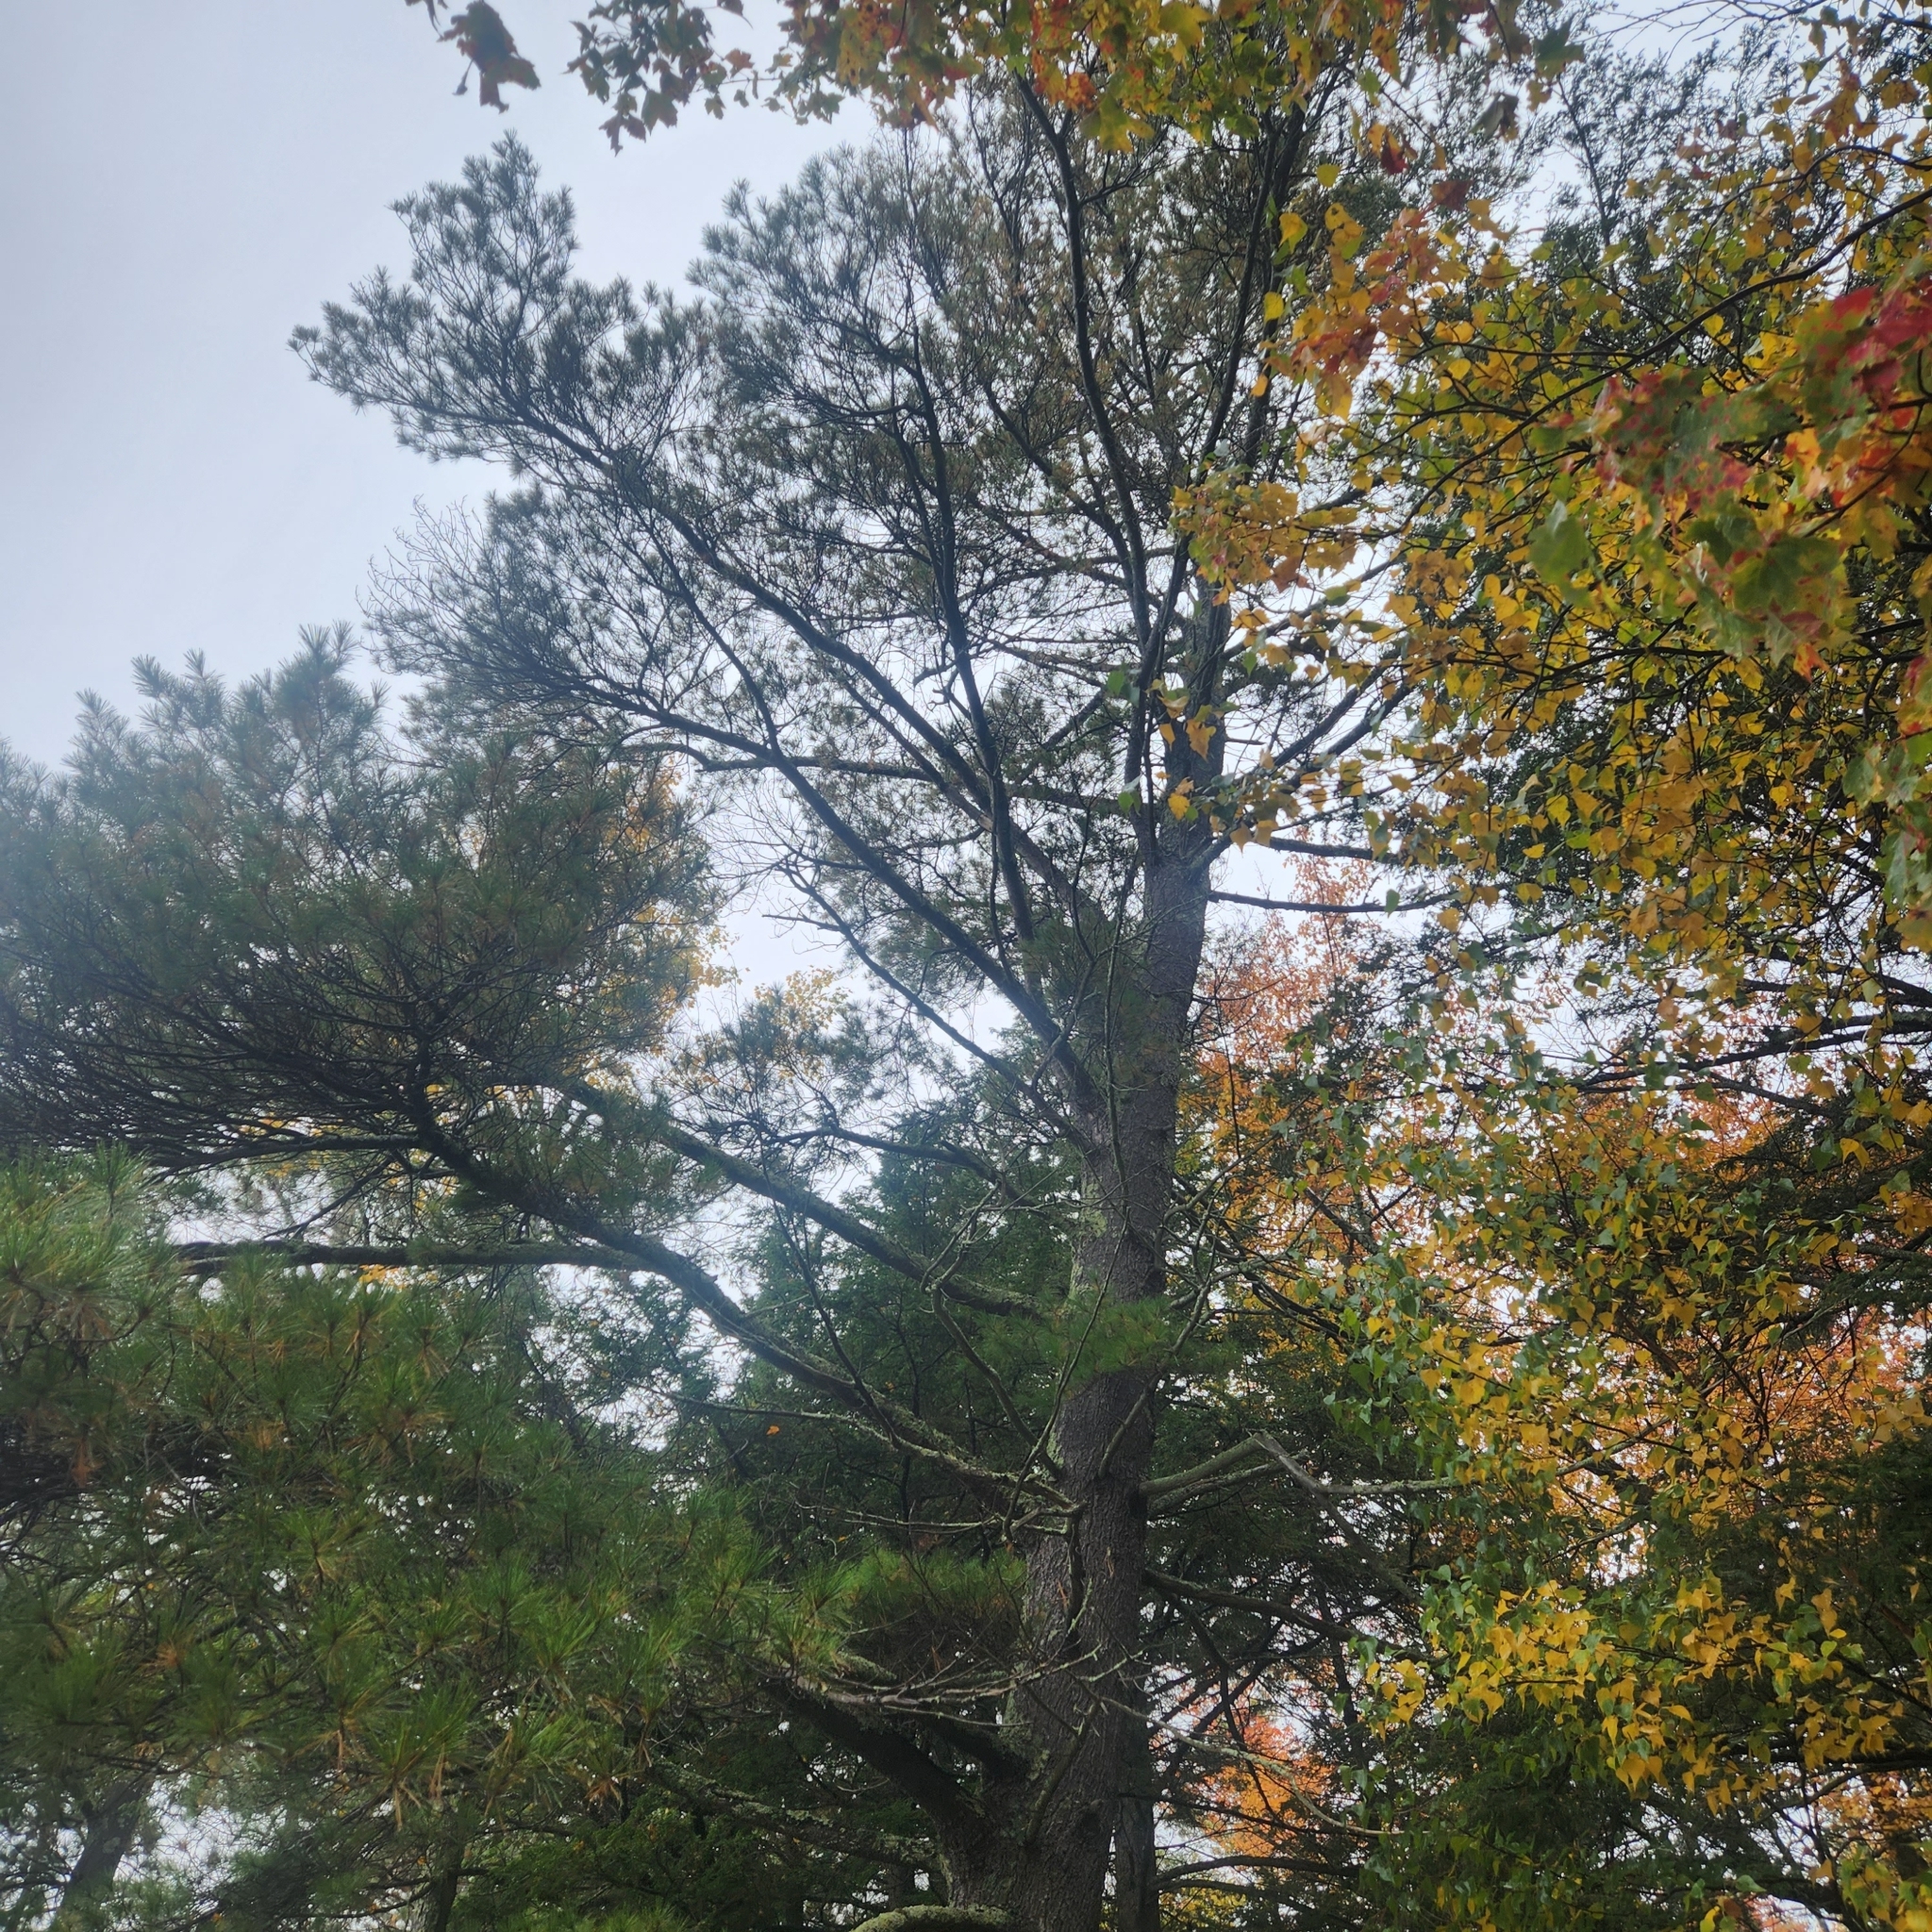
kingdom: Plantae
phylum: Tracheophyta
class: Pinopsida
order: Pinales
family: Pinaceae
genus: Pinus
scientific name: Pinus strobus
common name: Weymouth pine
